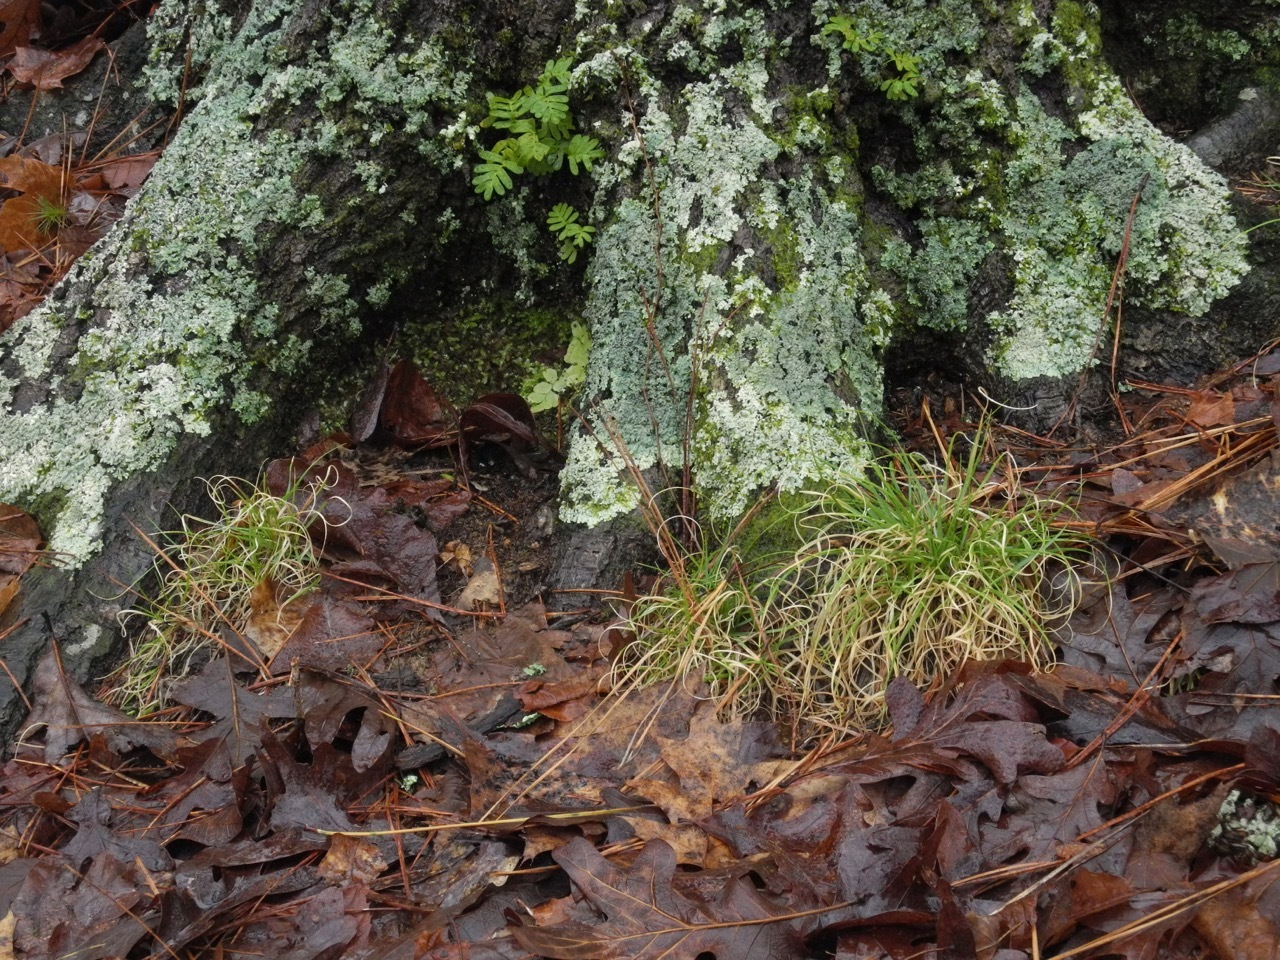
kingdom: Plantae
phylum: Tracheophyta
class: Liliopsida
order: Poales
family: Poaceae
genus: Danthonia
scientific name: Danthonia spicata
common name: Common wild oatgrass
